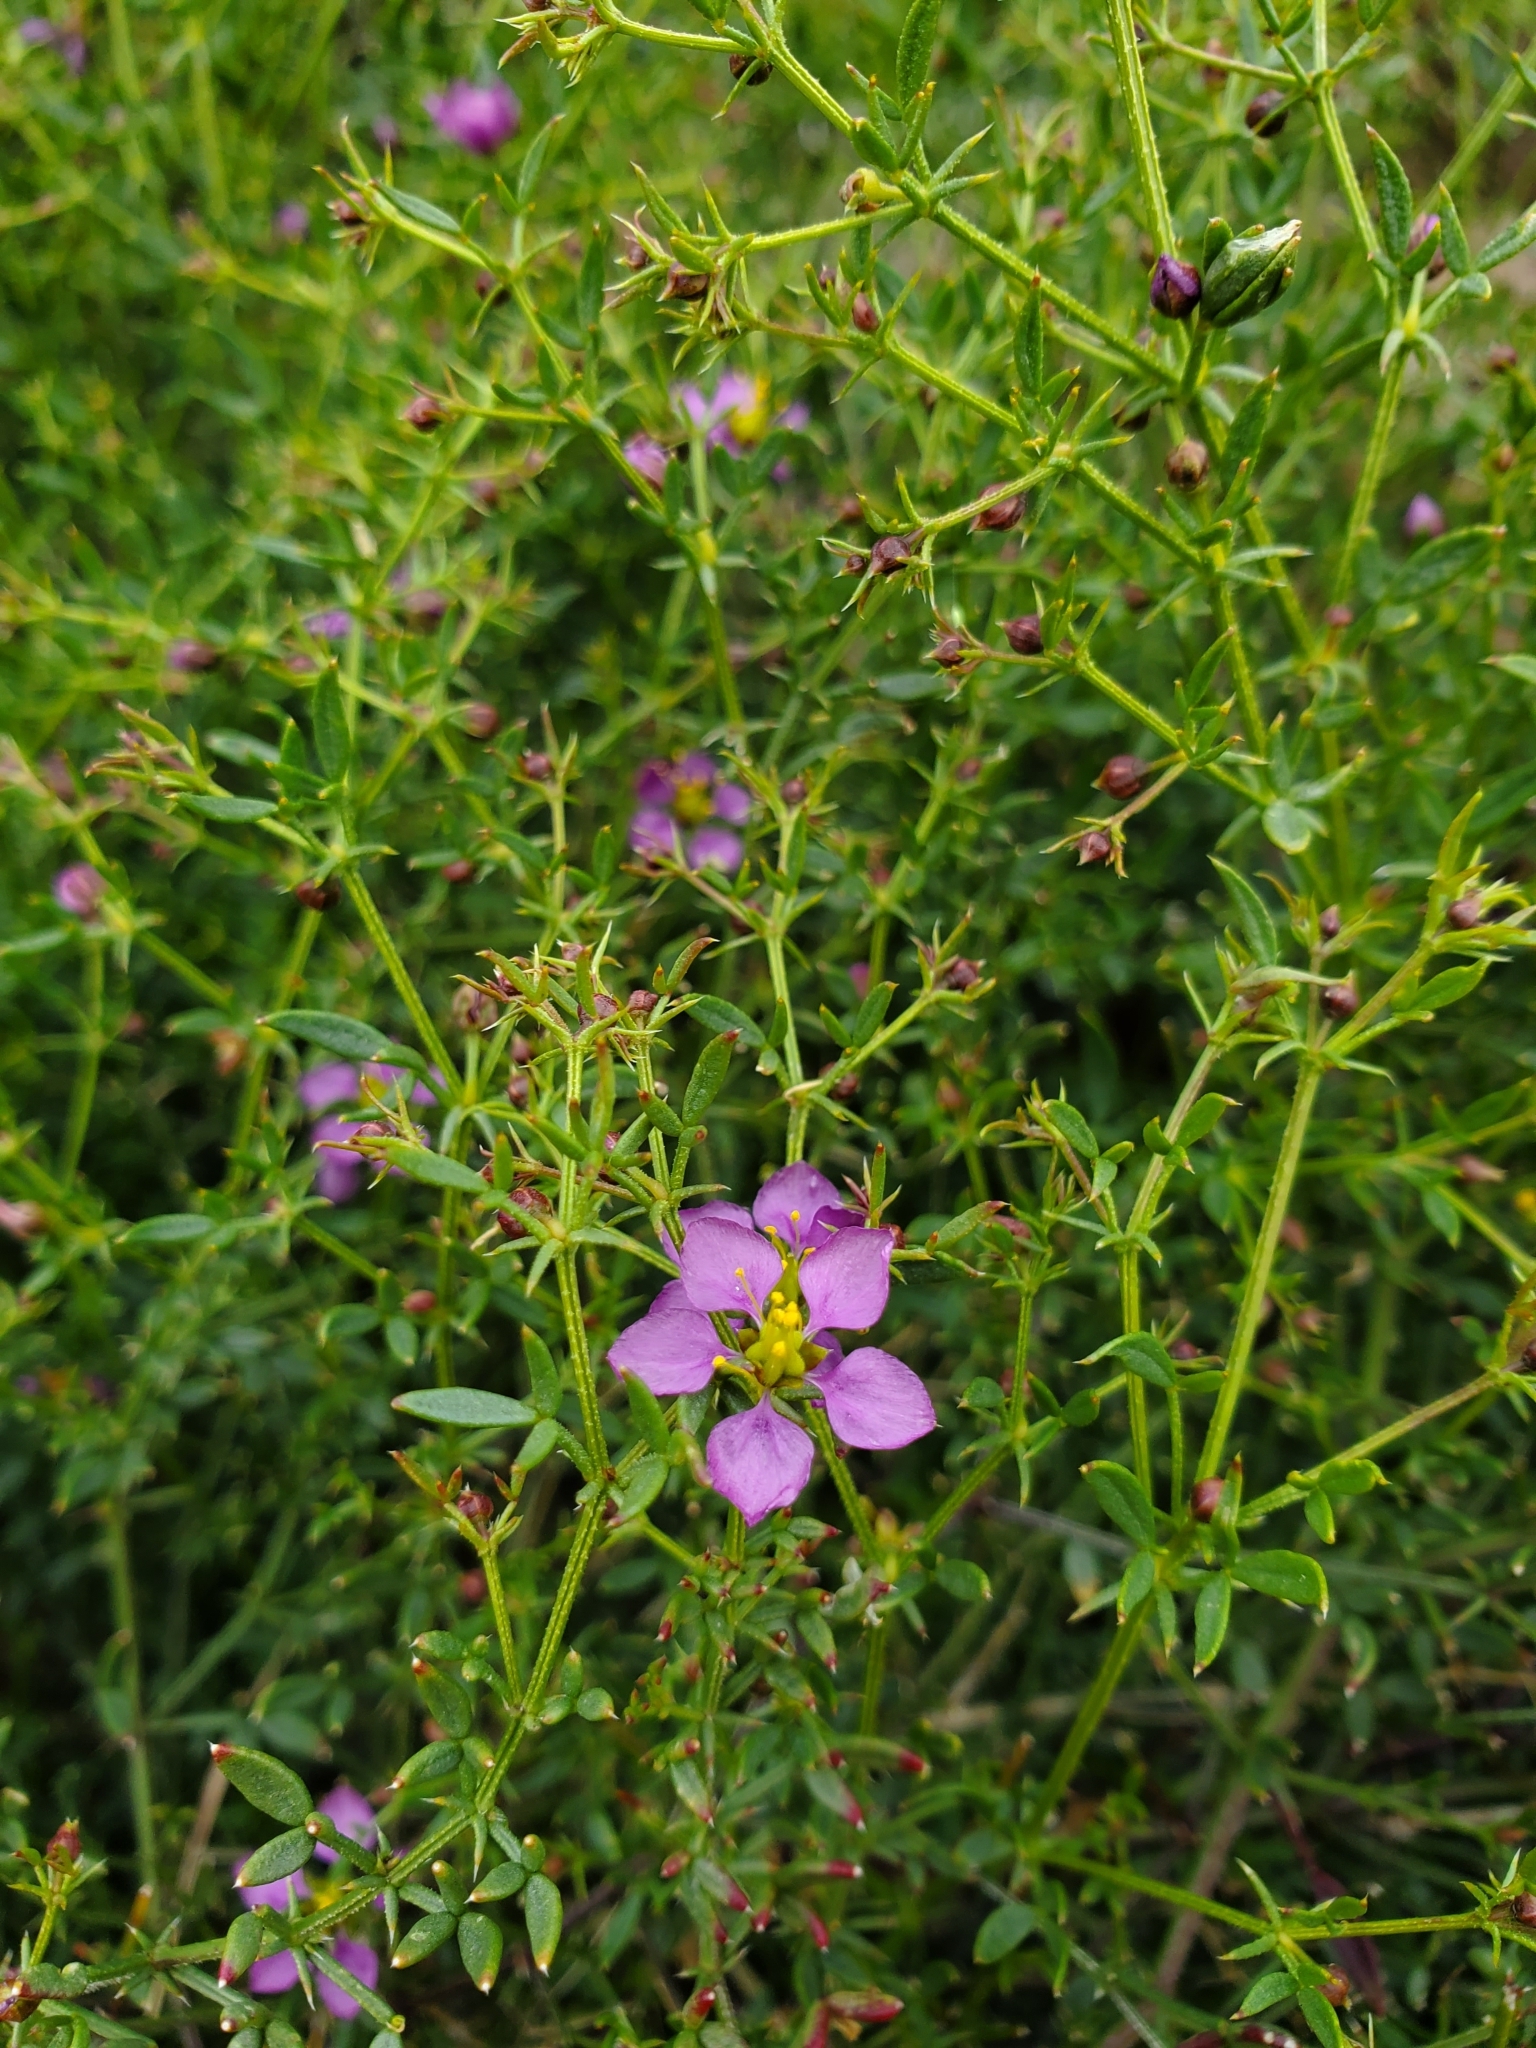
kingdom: Plantae
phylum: Tracheophyta
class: Magnoliopsida
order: Zygophyllales
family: Zygophyllaceae
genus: Fagonia
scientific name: Fagonia laevis
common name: California fagonbush
